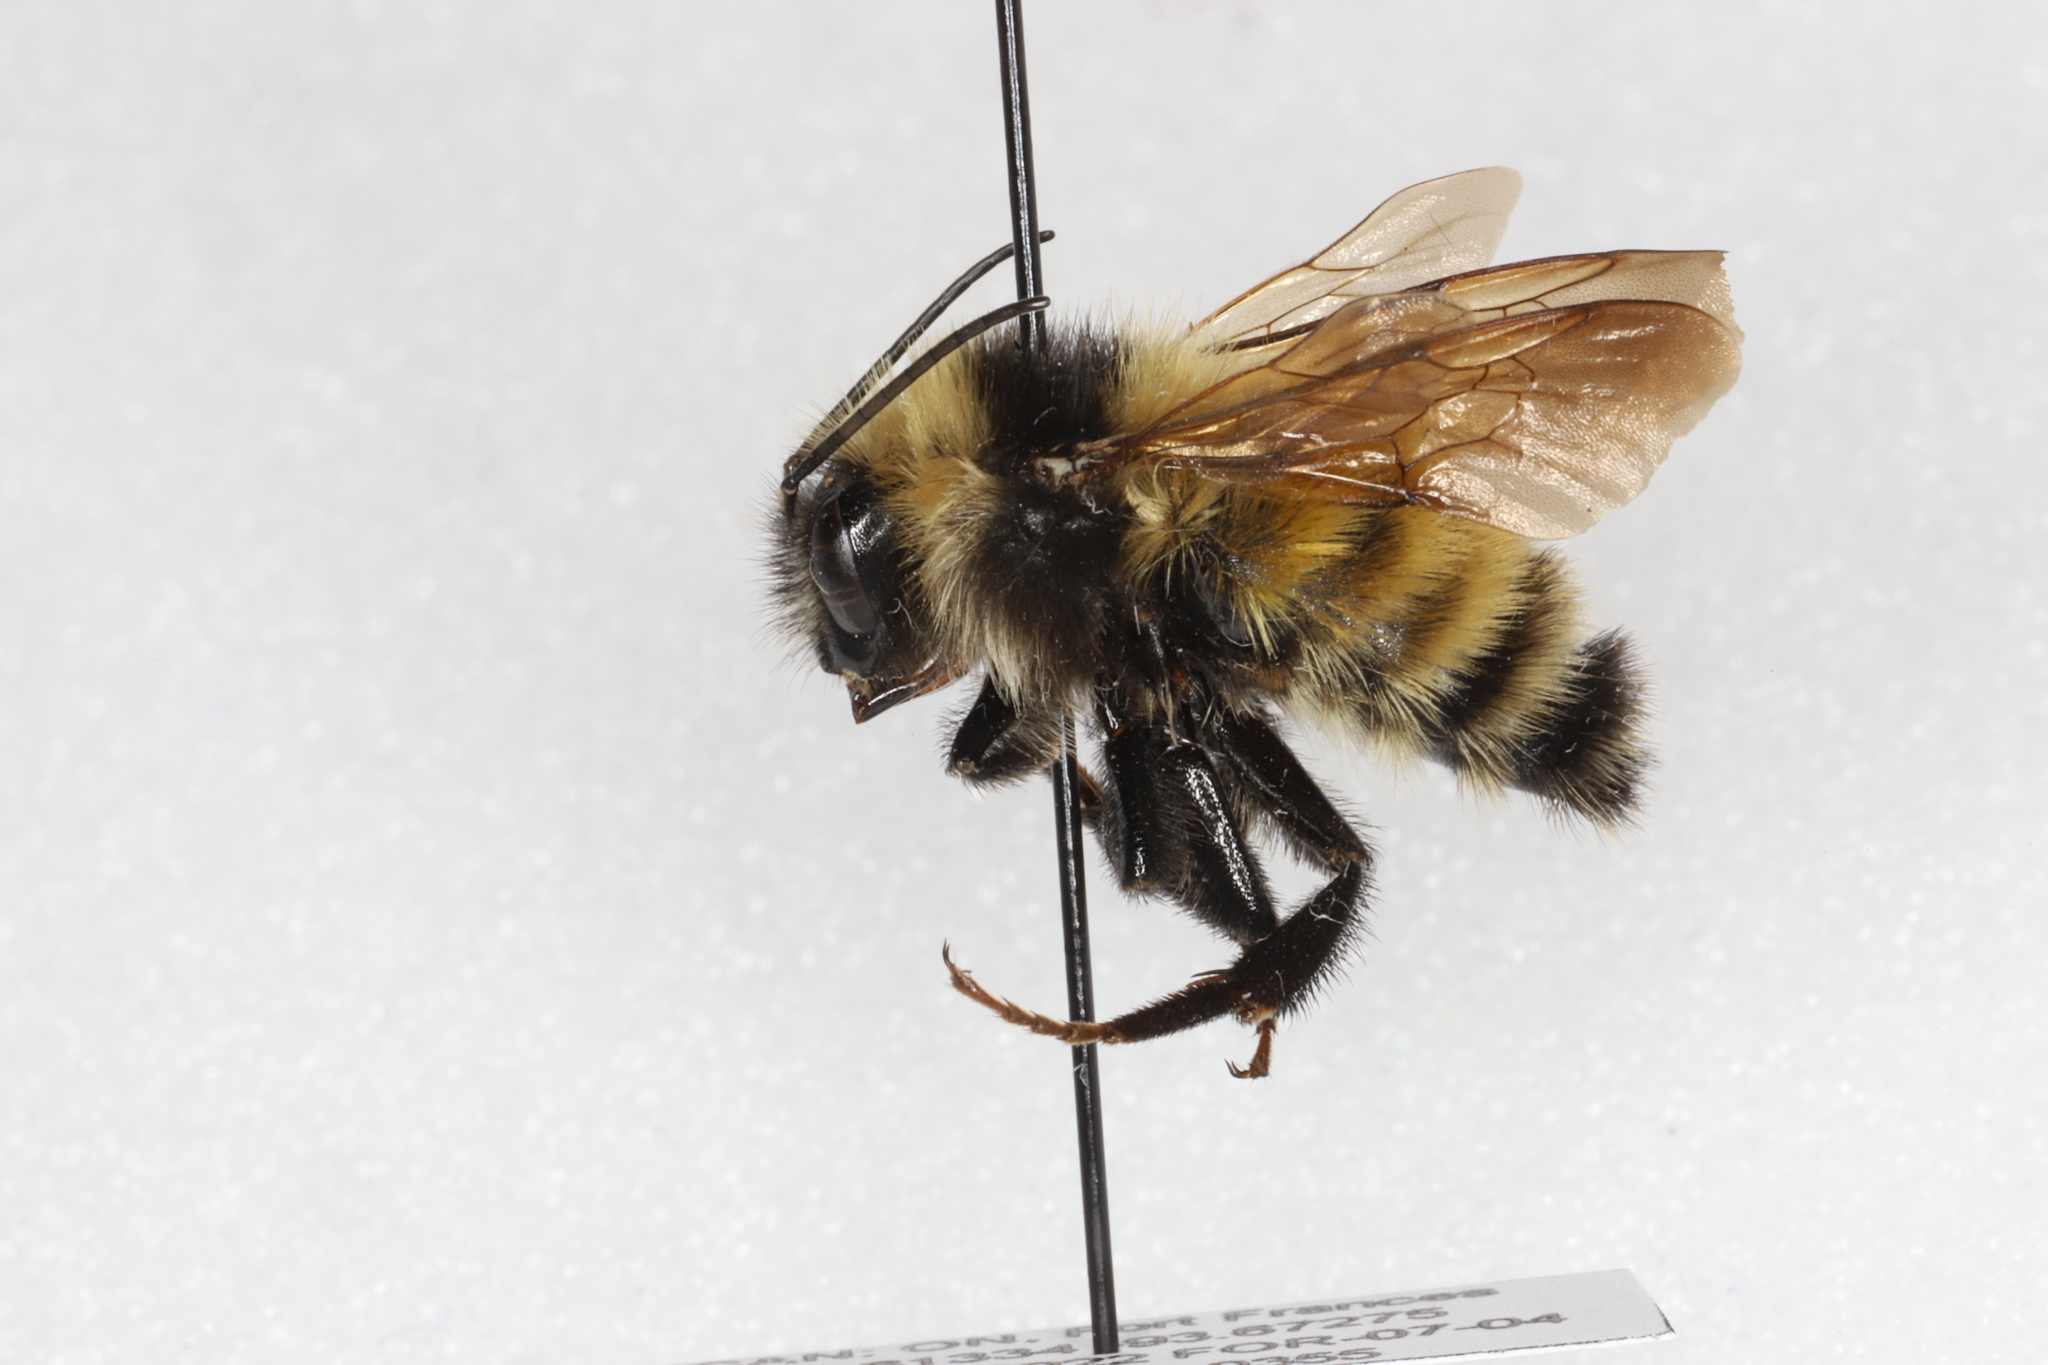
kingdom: Animalia
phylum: Arthropoda
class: Insecta
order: Hymenoptera
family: Apidae
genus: Bombus
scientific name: Bombus borealis
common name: Northern amber bumble bee
